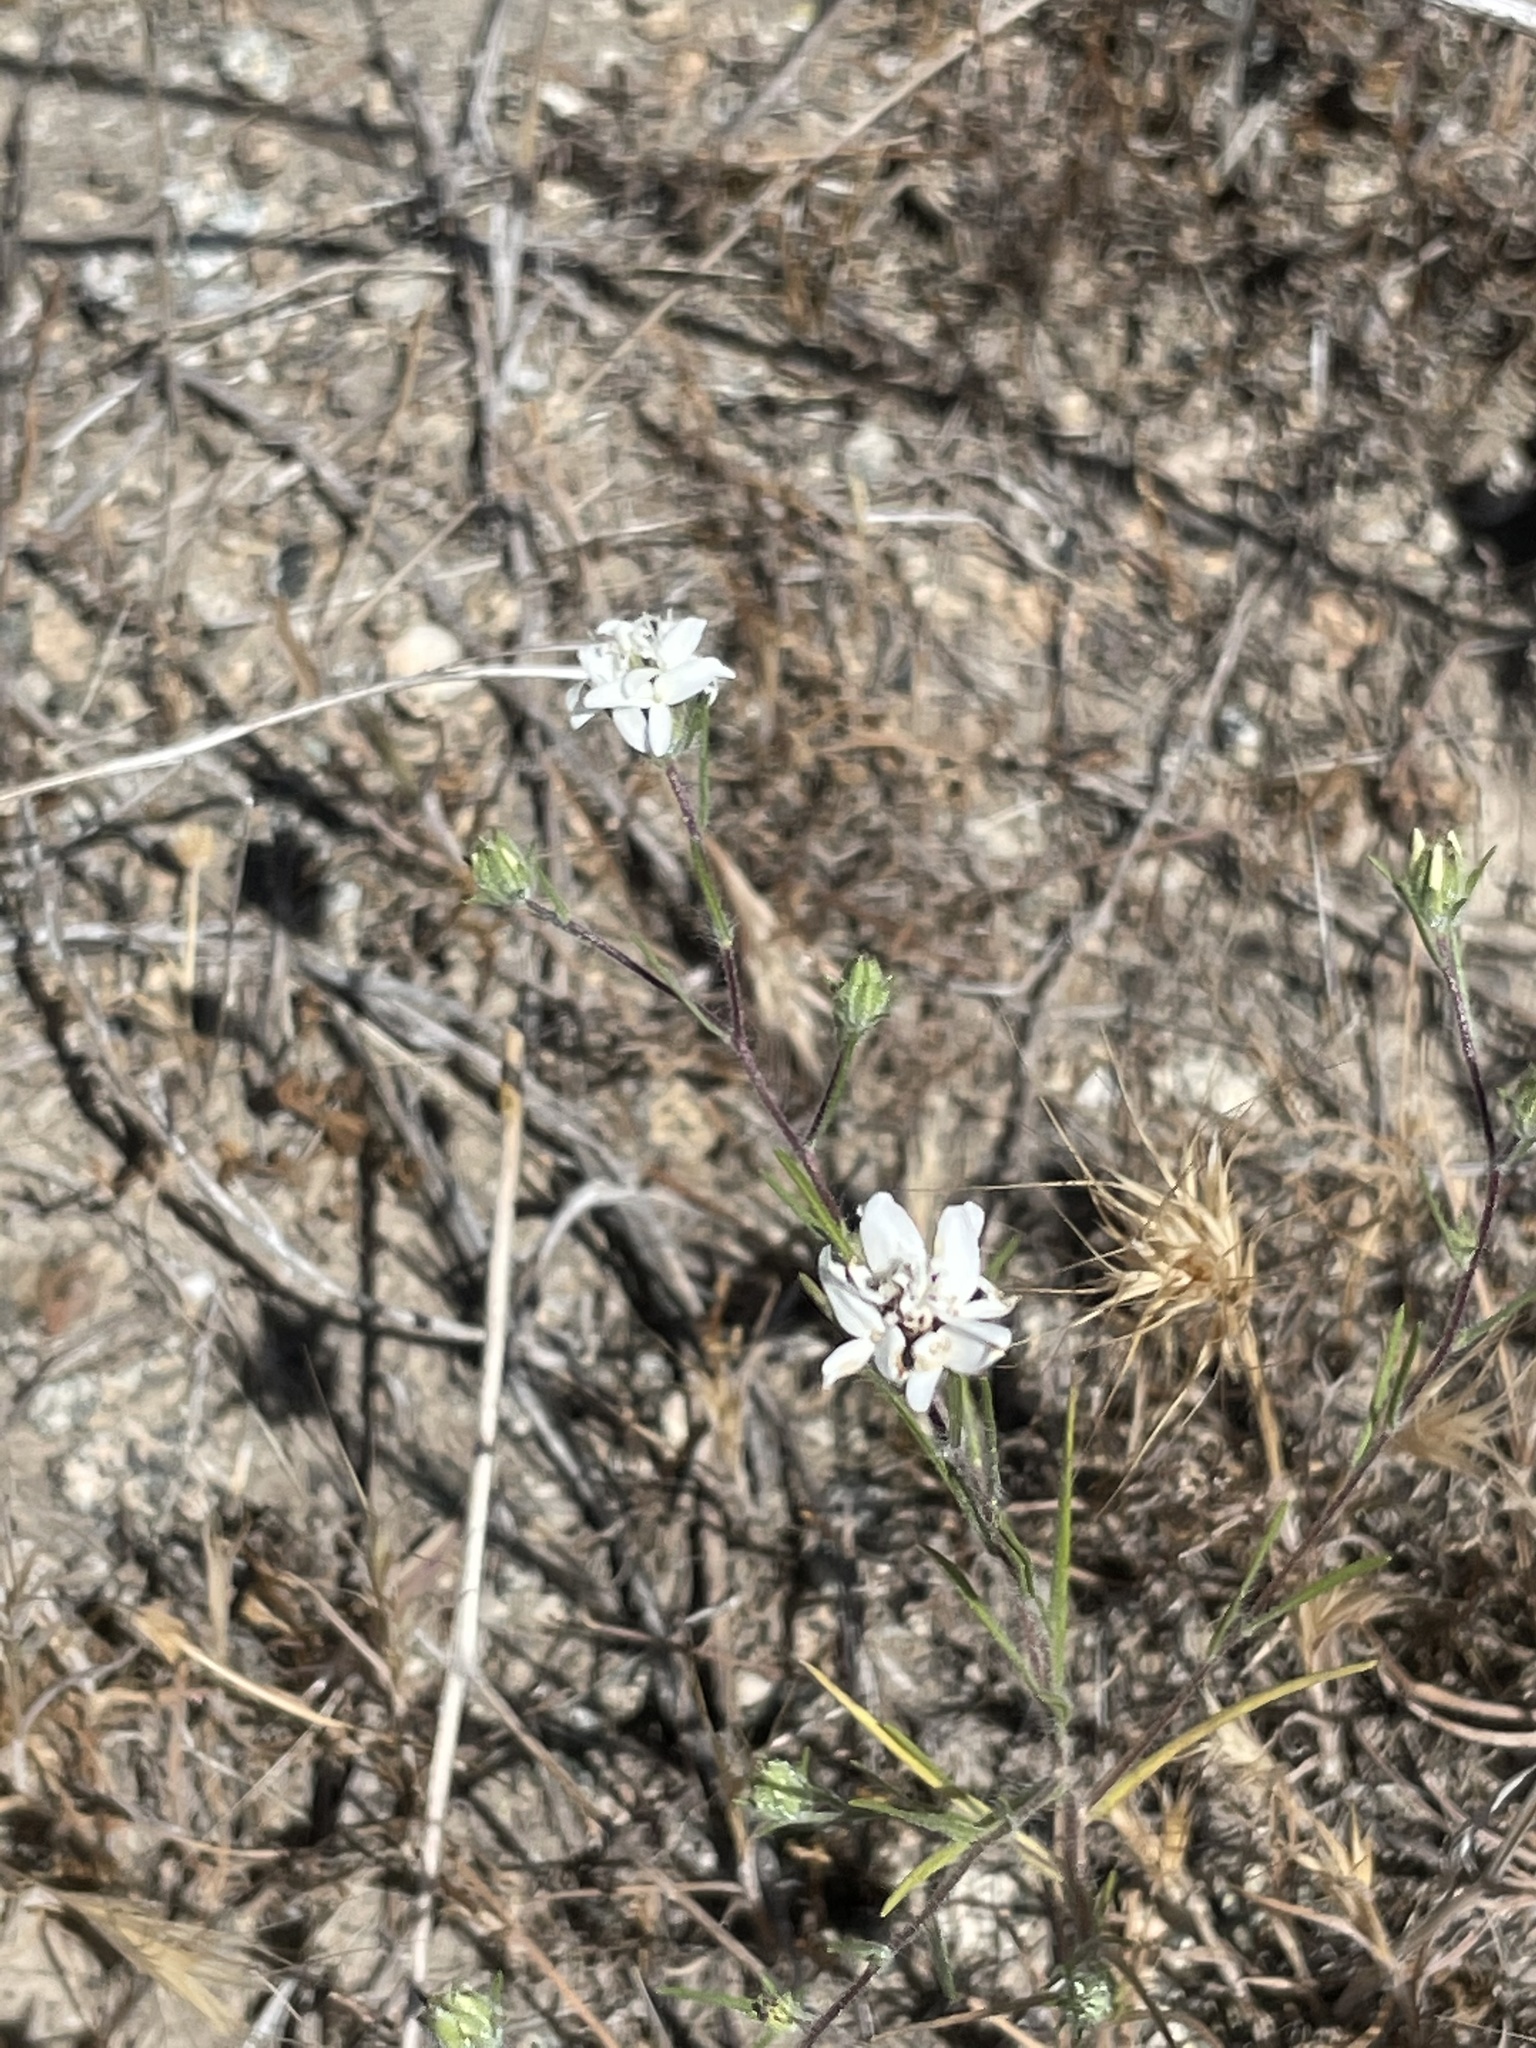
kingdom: Plantae
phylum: Tracheophyta
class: Magnoliopsida
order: Asterales
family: Asteraceae
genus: Osmadenia
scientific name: Osmadenia tenella
